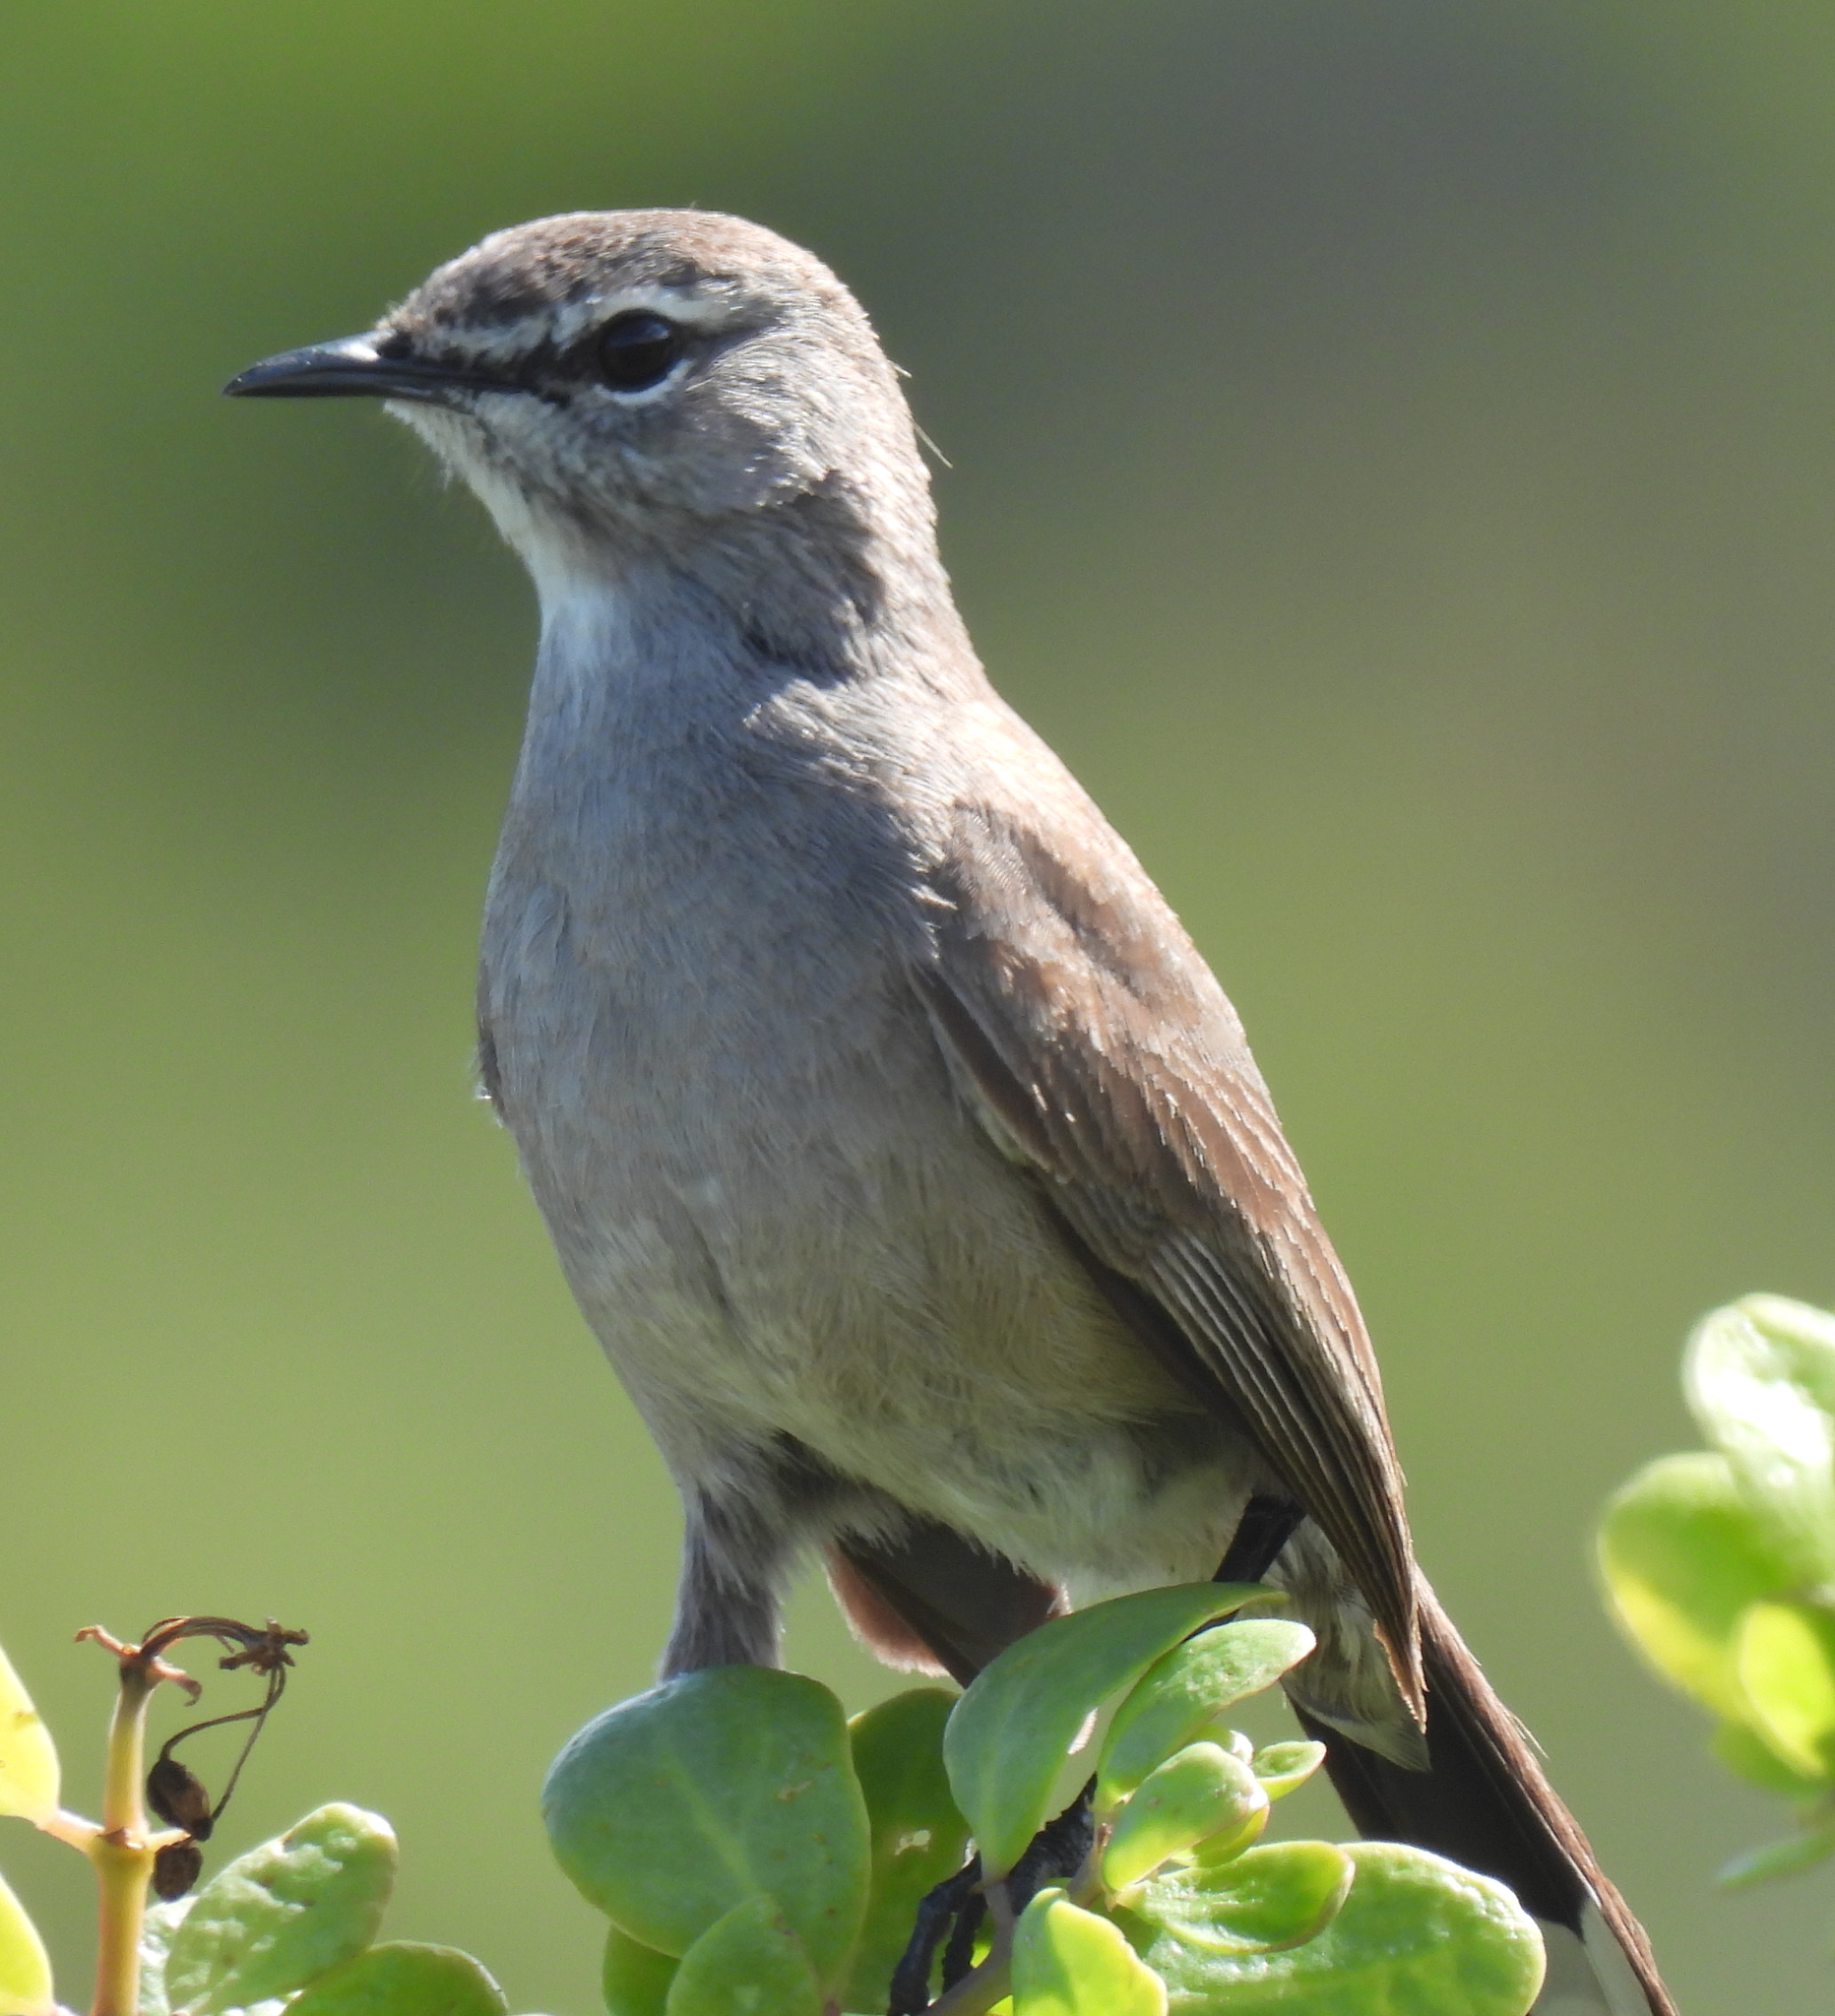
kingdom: Animalia
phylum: Chordata
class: Aves
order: Passeriformes
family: Muscicapidae
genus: Erythropygia
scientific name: Erythropygia coryphoeus
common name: Karoo scrub robin
